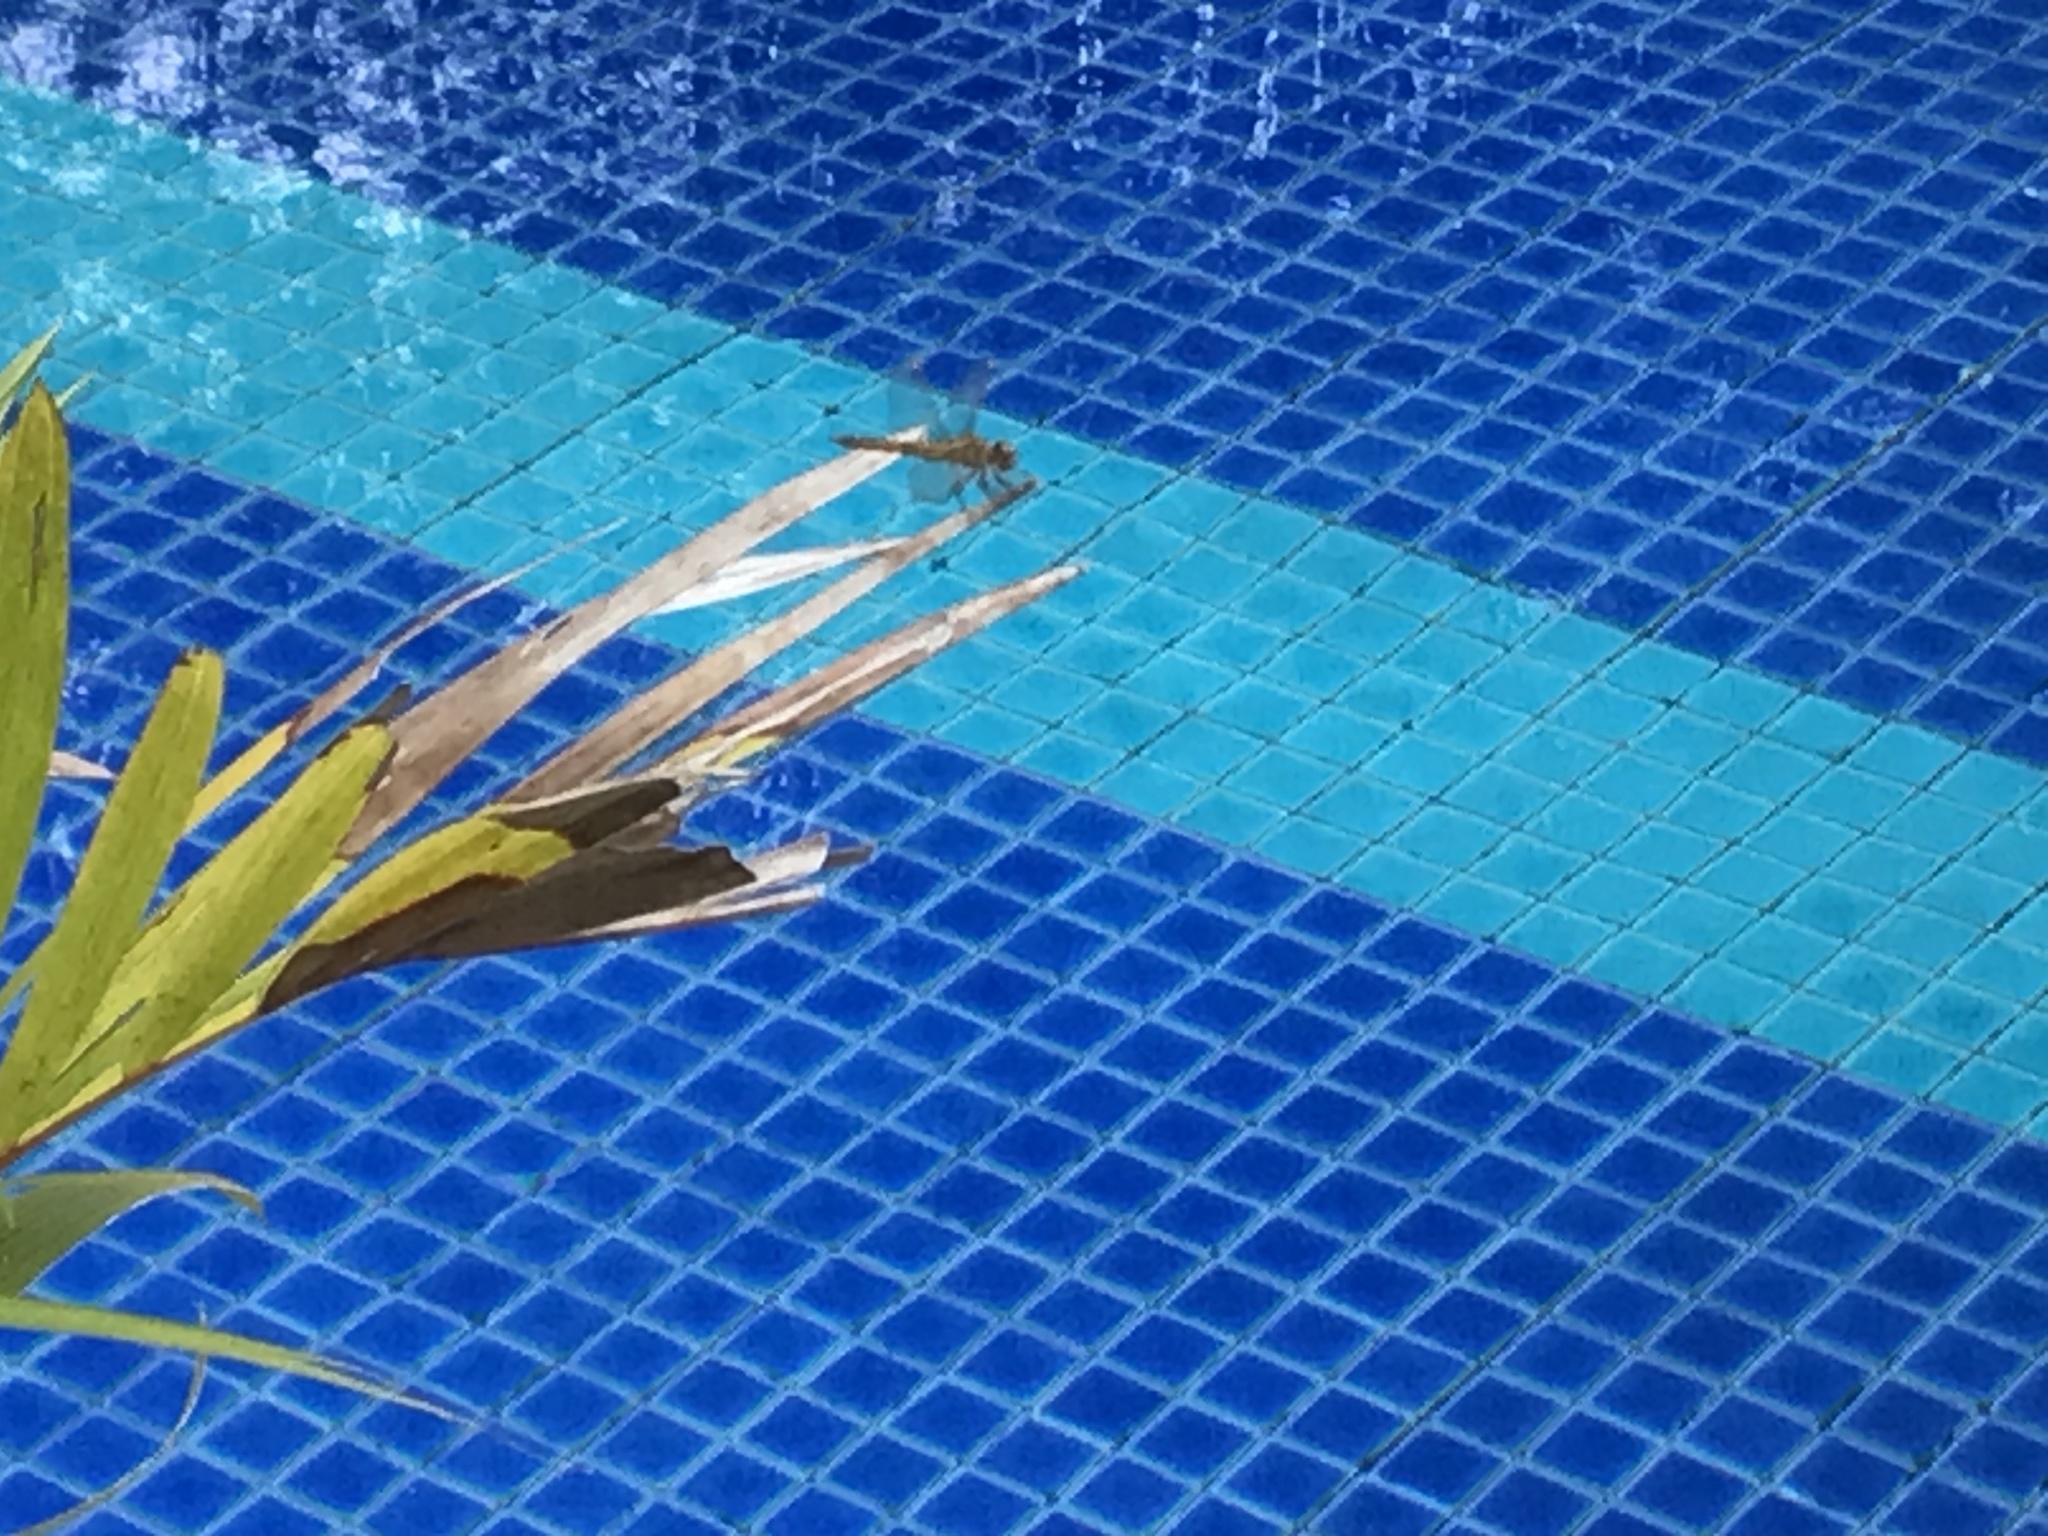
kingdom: Animalia
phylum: Arthropoda
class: Insecta
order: Odonata
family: Libellulidae
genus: Brachythemis
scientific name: Brachythemis contaminata
